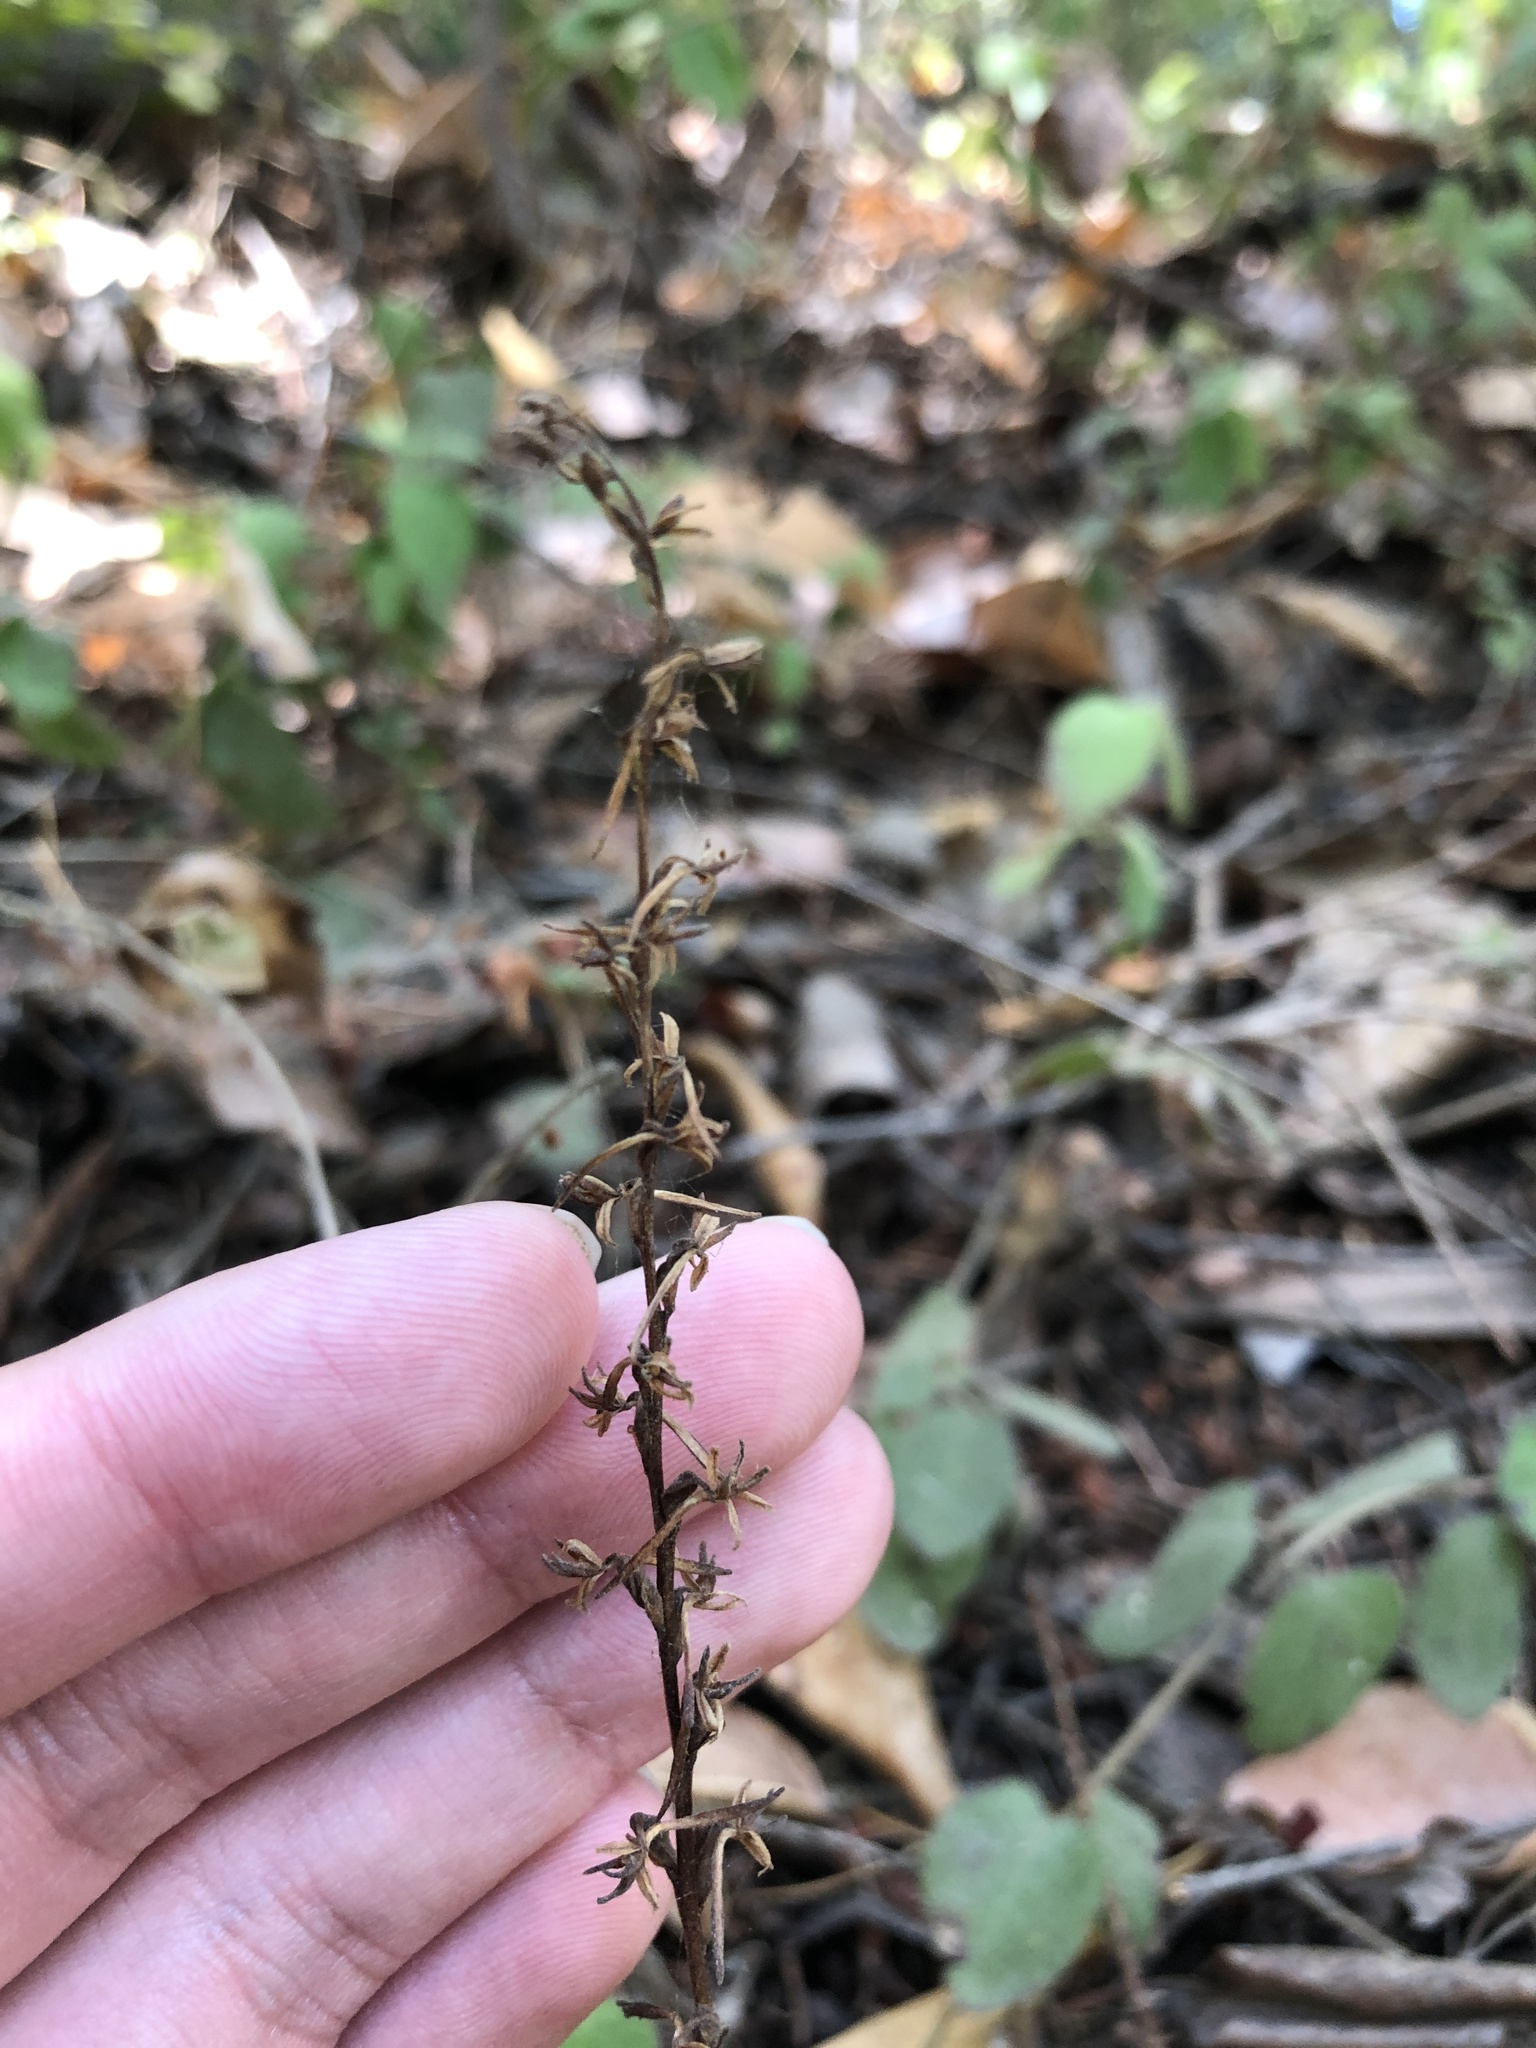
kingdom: Plantae
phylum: Tracheophyta
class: Liliopsida
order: Asparagales
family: Orchidaceae
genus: Platanthera
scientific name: Platanthera transversa
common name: Royal rein orchid
